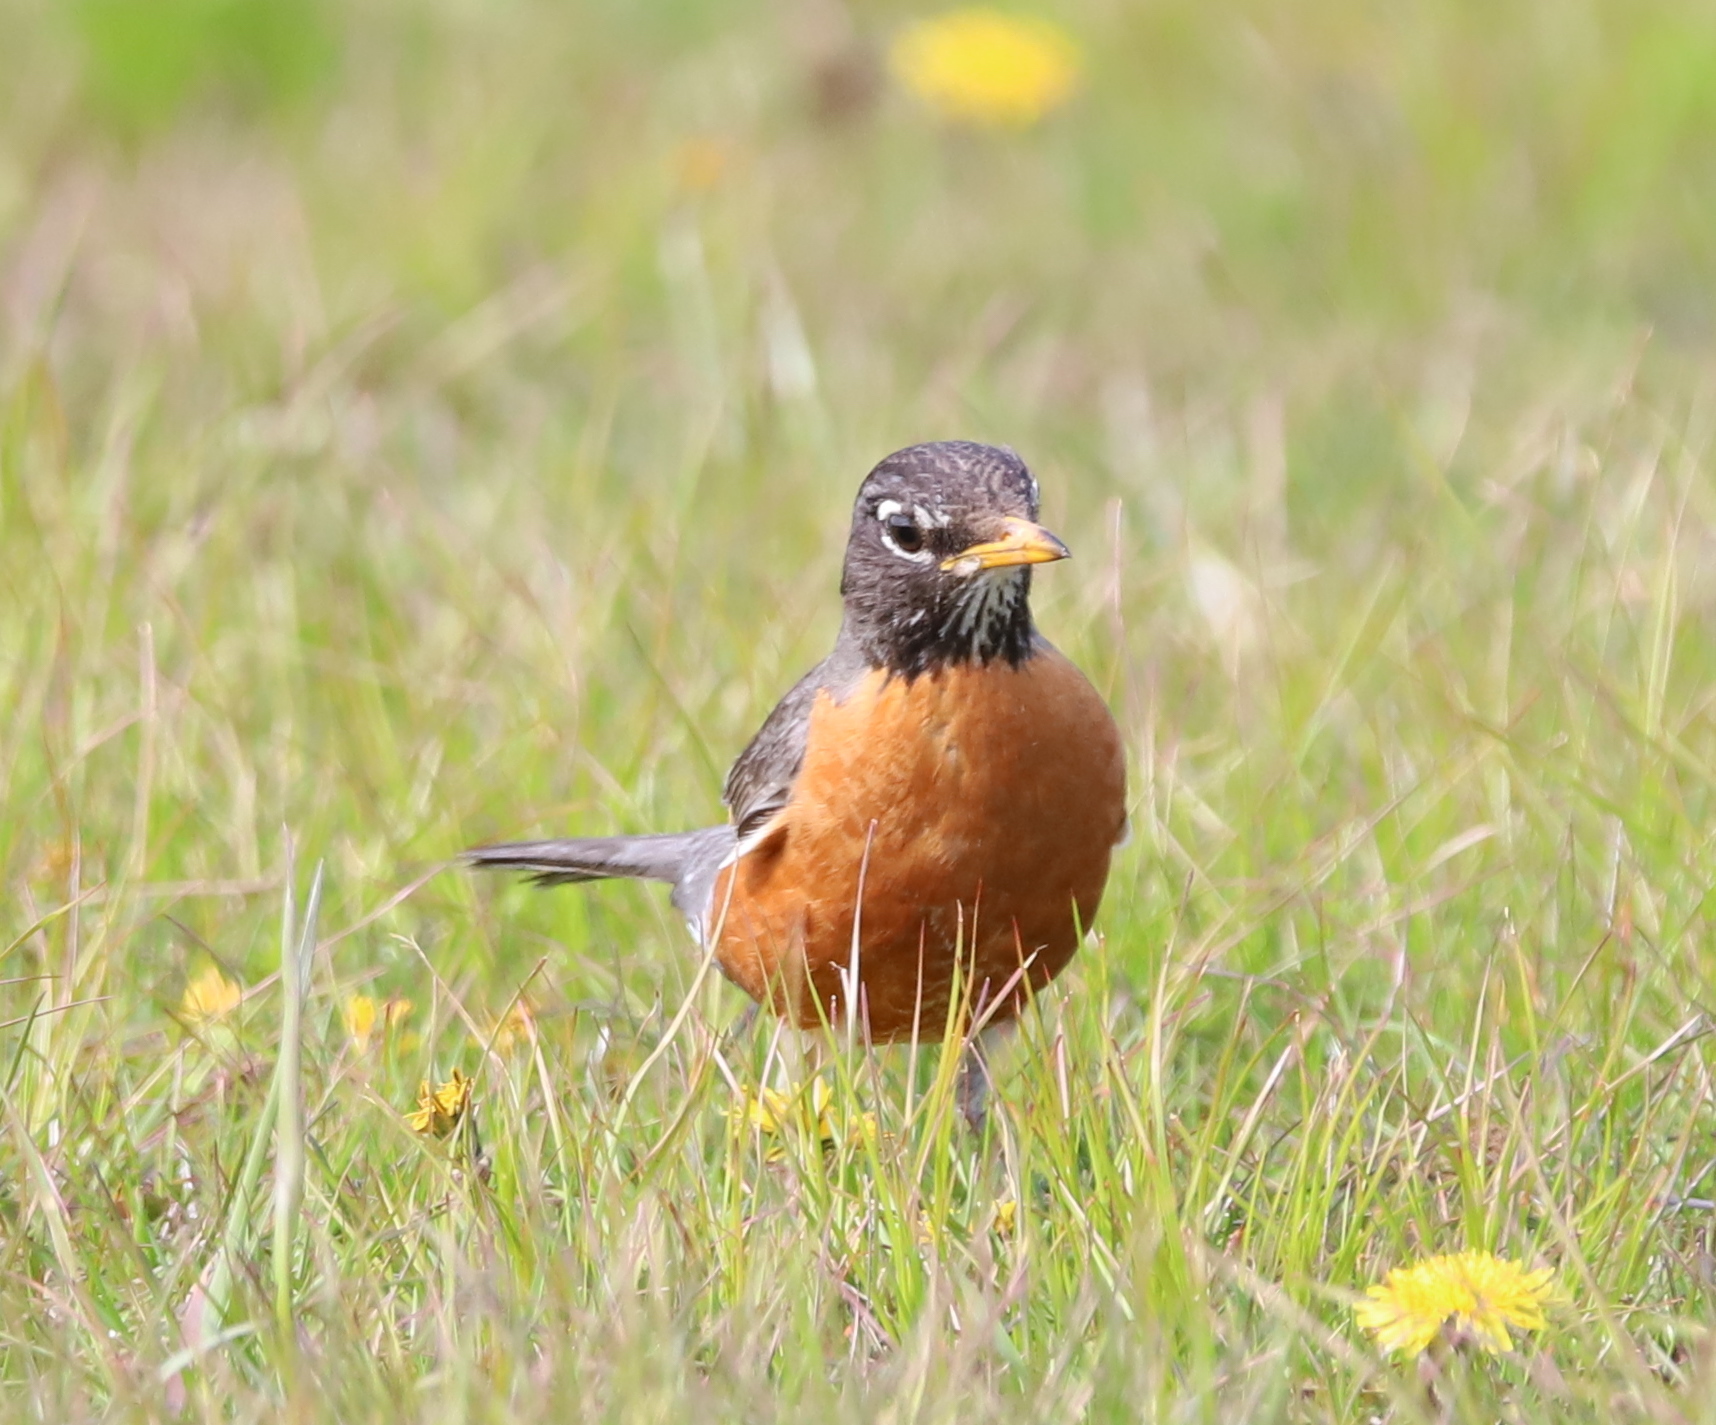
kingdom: Animalia
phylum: Chordata
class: Aves
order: Passeriformes
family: Turdidae
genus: Turdus
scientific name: Turdus migratorius
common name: American robin
